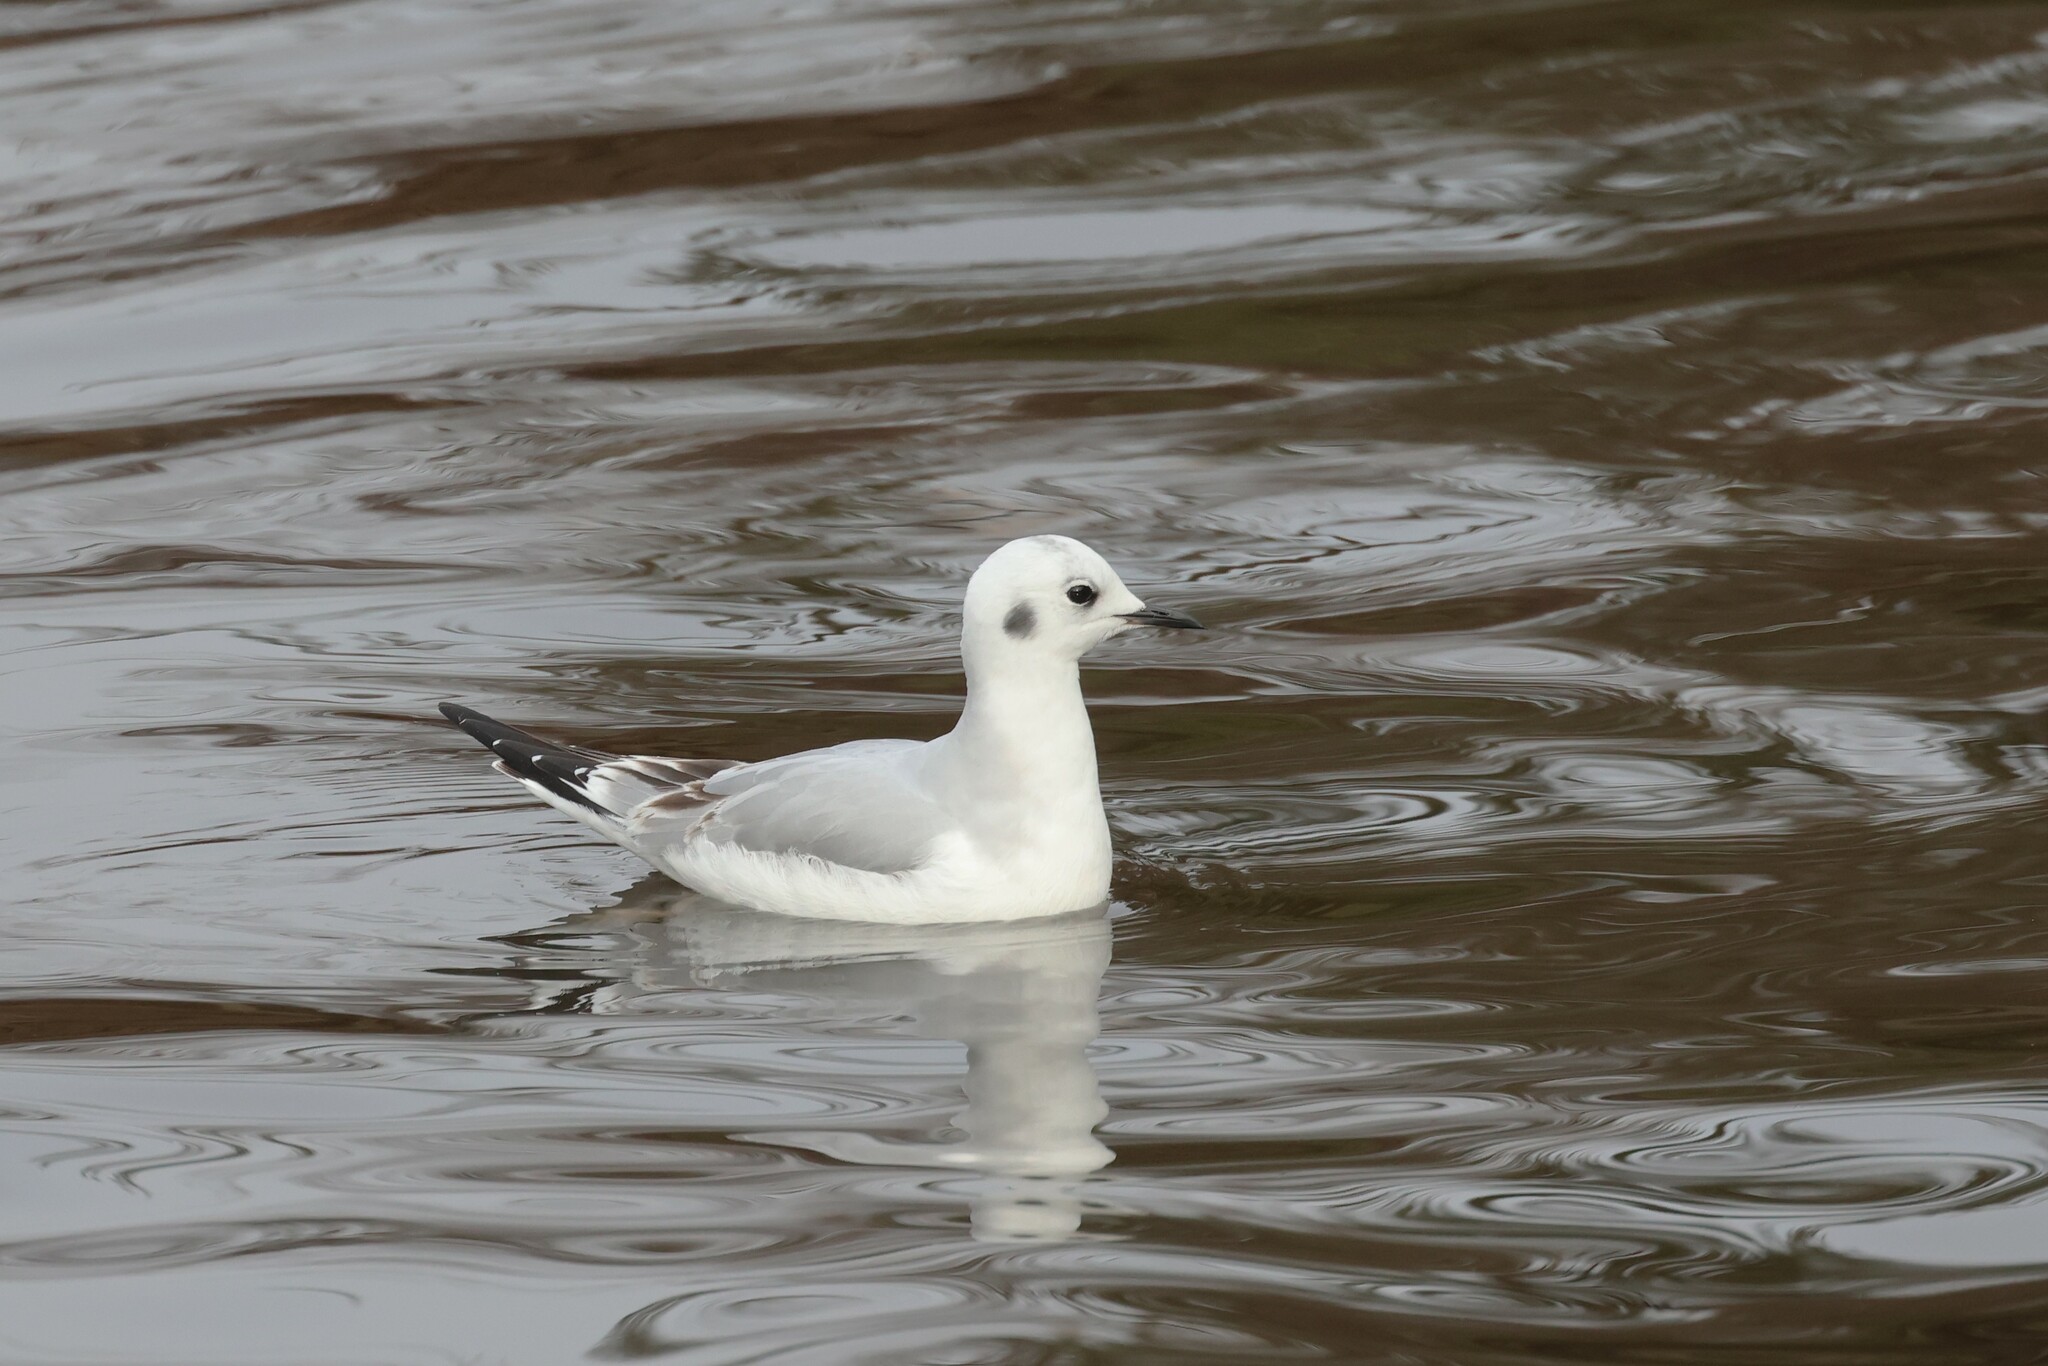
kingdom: Animalia
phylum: Chordata
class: Aves
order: Charadriiformes
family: Laridae
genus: Chroicocephalus
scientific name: Chroicocephalus philadelphia
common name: Bonaparte's gull
